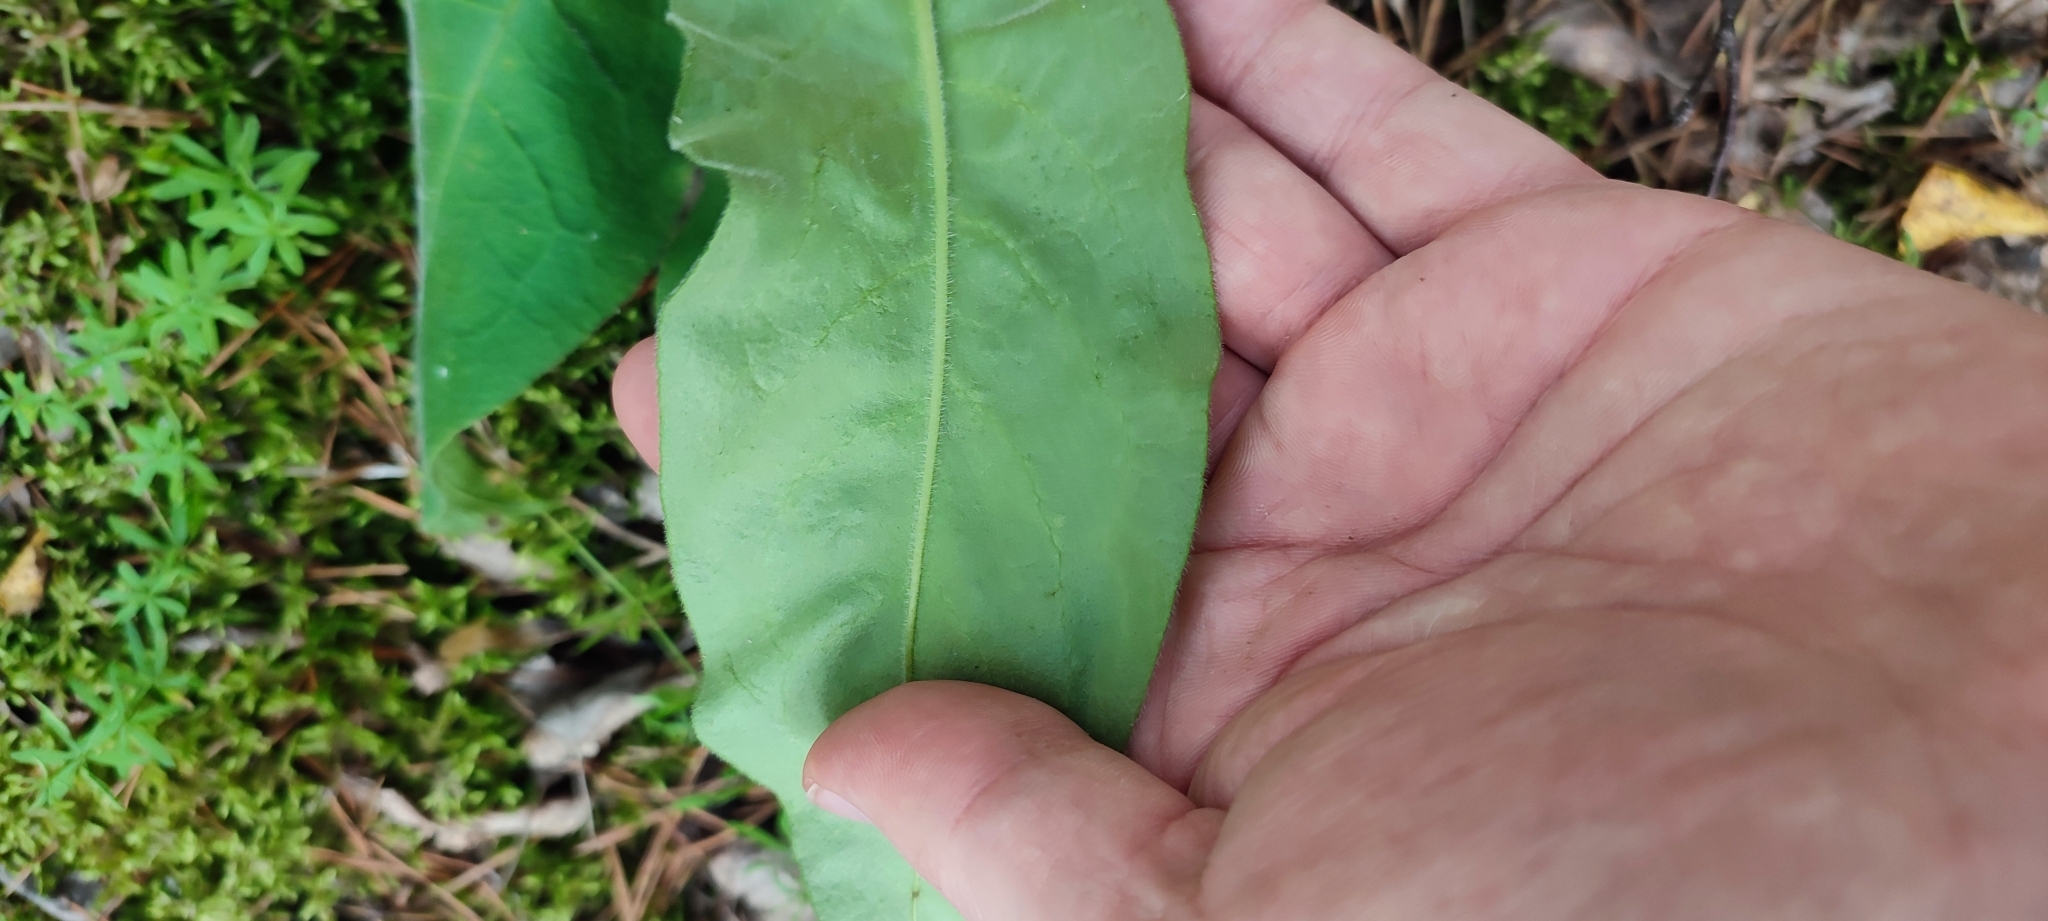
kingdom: Plantae
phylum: Tracheophyta
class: Magnoliopsida
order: Boraginales
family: Boraginaceae
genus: Pulmonaria
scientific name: Pulmonaria mollis
